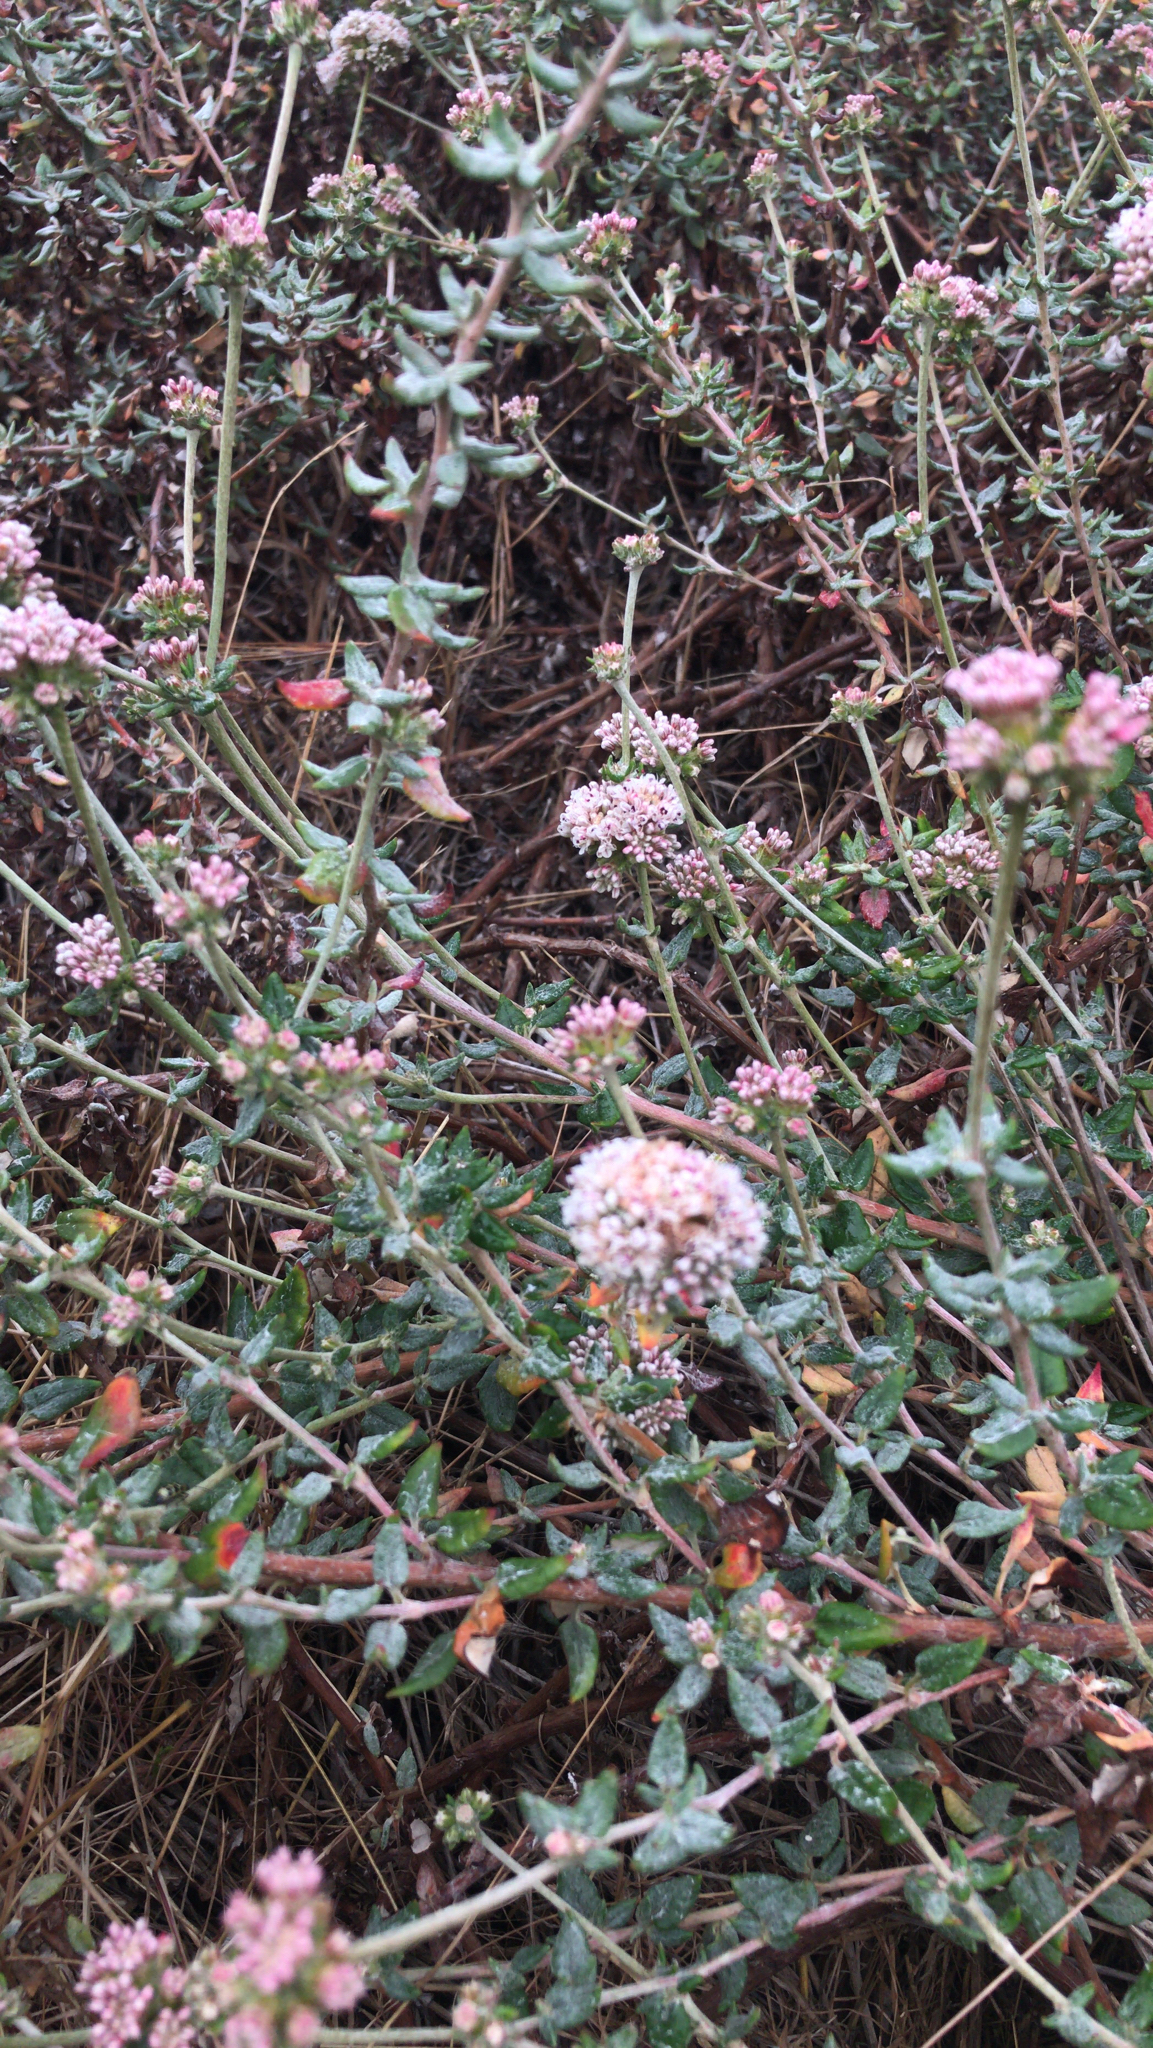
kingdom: Plantae
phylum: Tracheophyta
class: Magnoliopsida
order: Caryophyllales
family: Polygonaceae
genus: Eriogonum
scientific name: Eriogonum parvifolium
